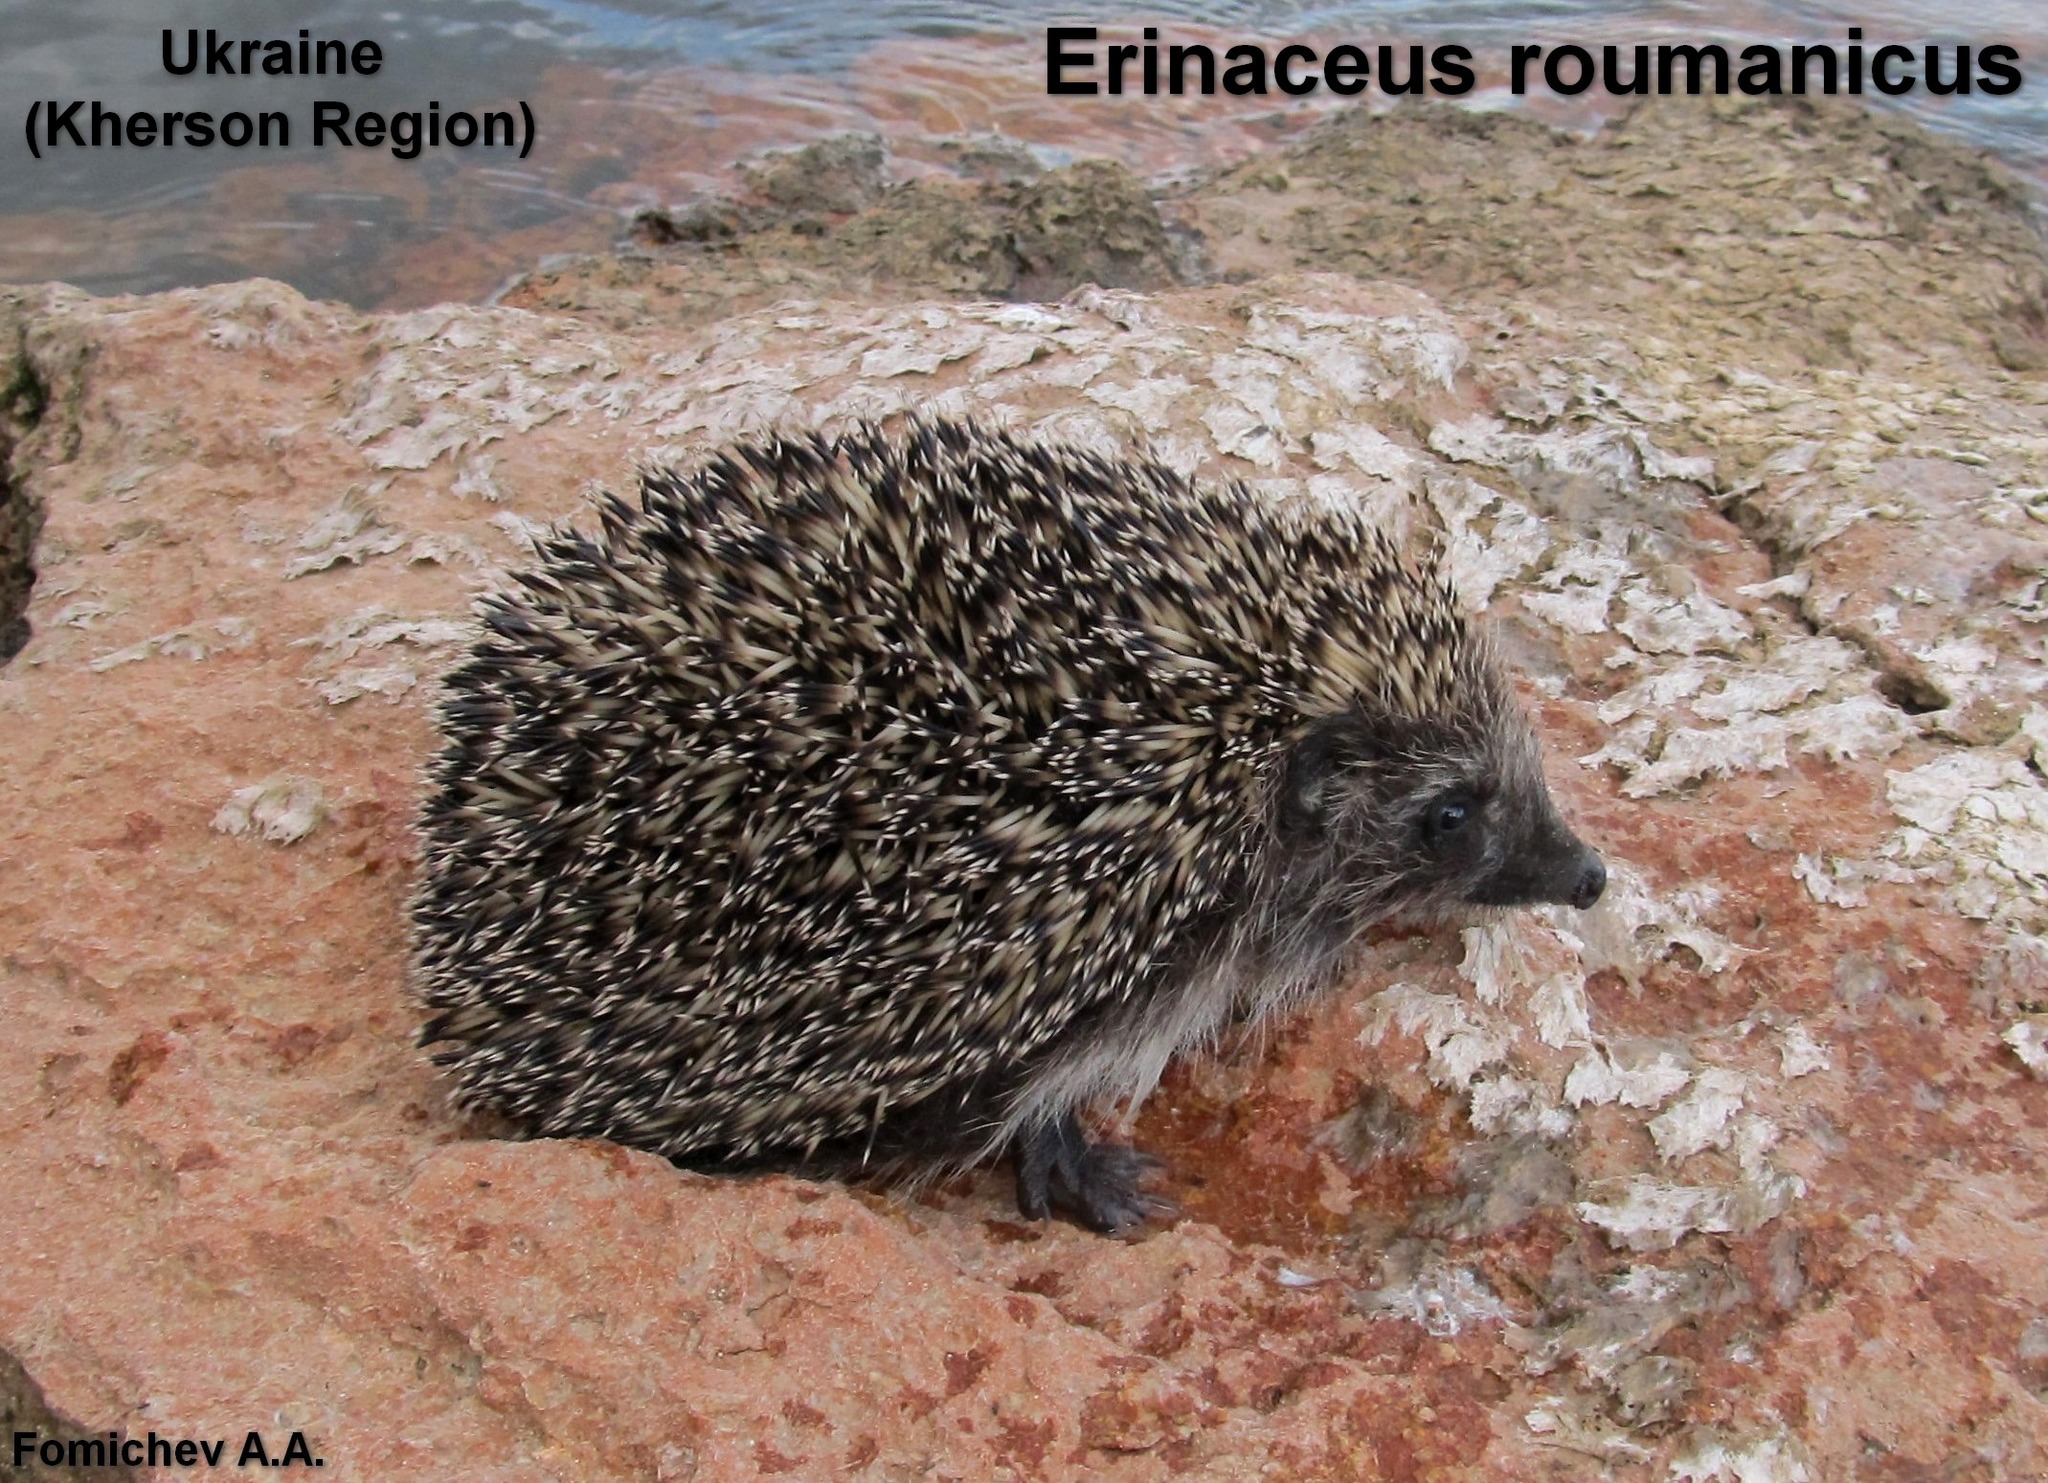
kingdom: Animalia
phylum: Chordata
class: Mammalia
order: Erinaceomorpha
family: Erinaceidae
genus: Erinaceus
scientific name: Erinaceus roumanicus
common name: Northern white-breasted hedgehog
